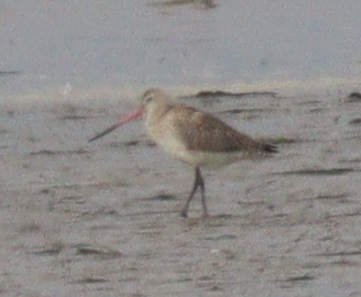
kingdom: Animalia
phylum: Chordata
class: Aves
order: Charadriiformes
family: Scolopacidae
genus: Limosa
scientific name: Limosa lapponica
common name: Bar-tailed godwit
